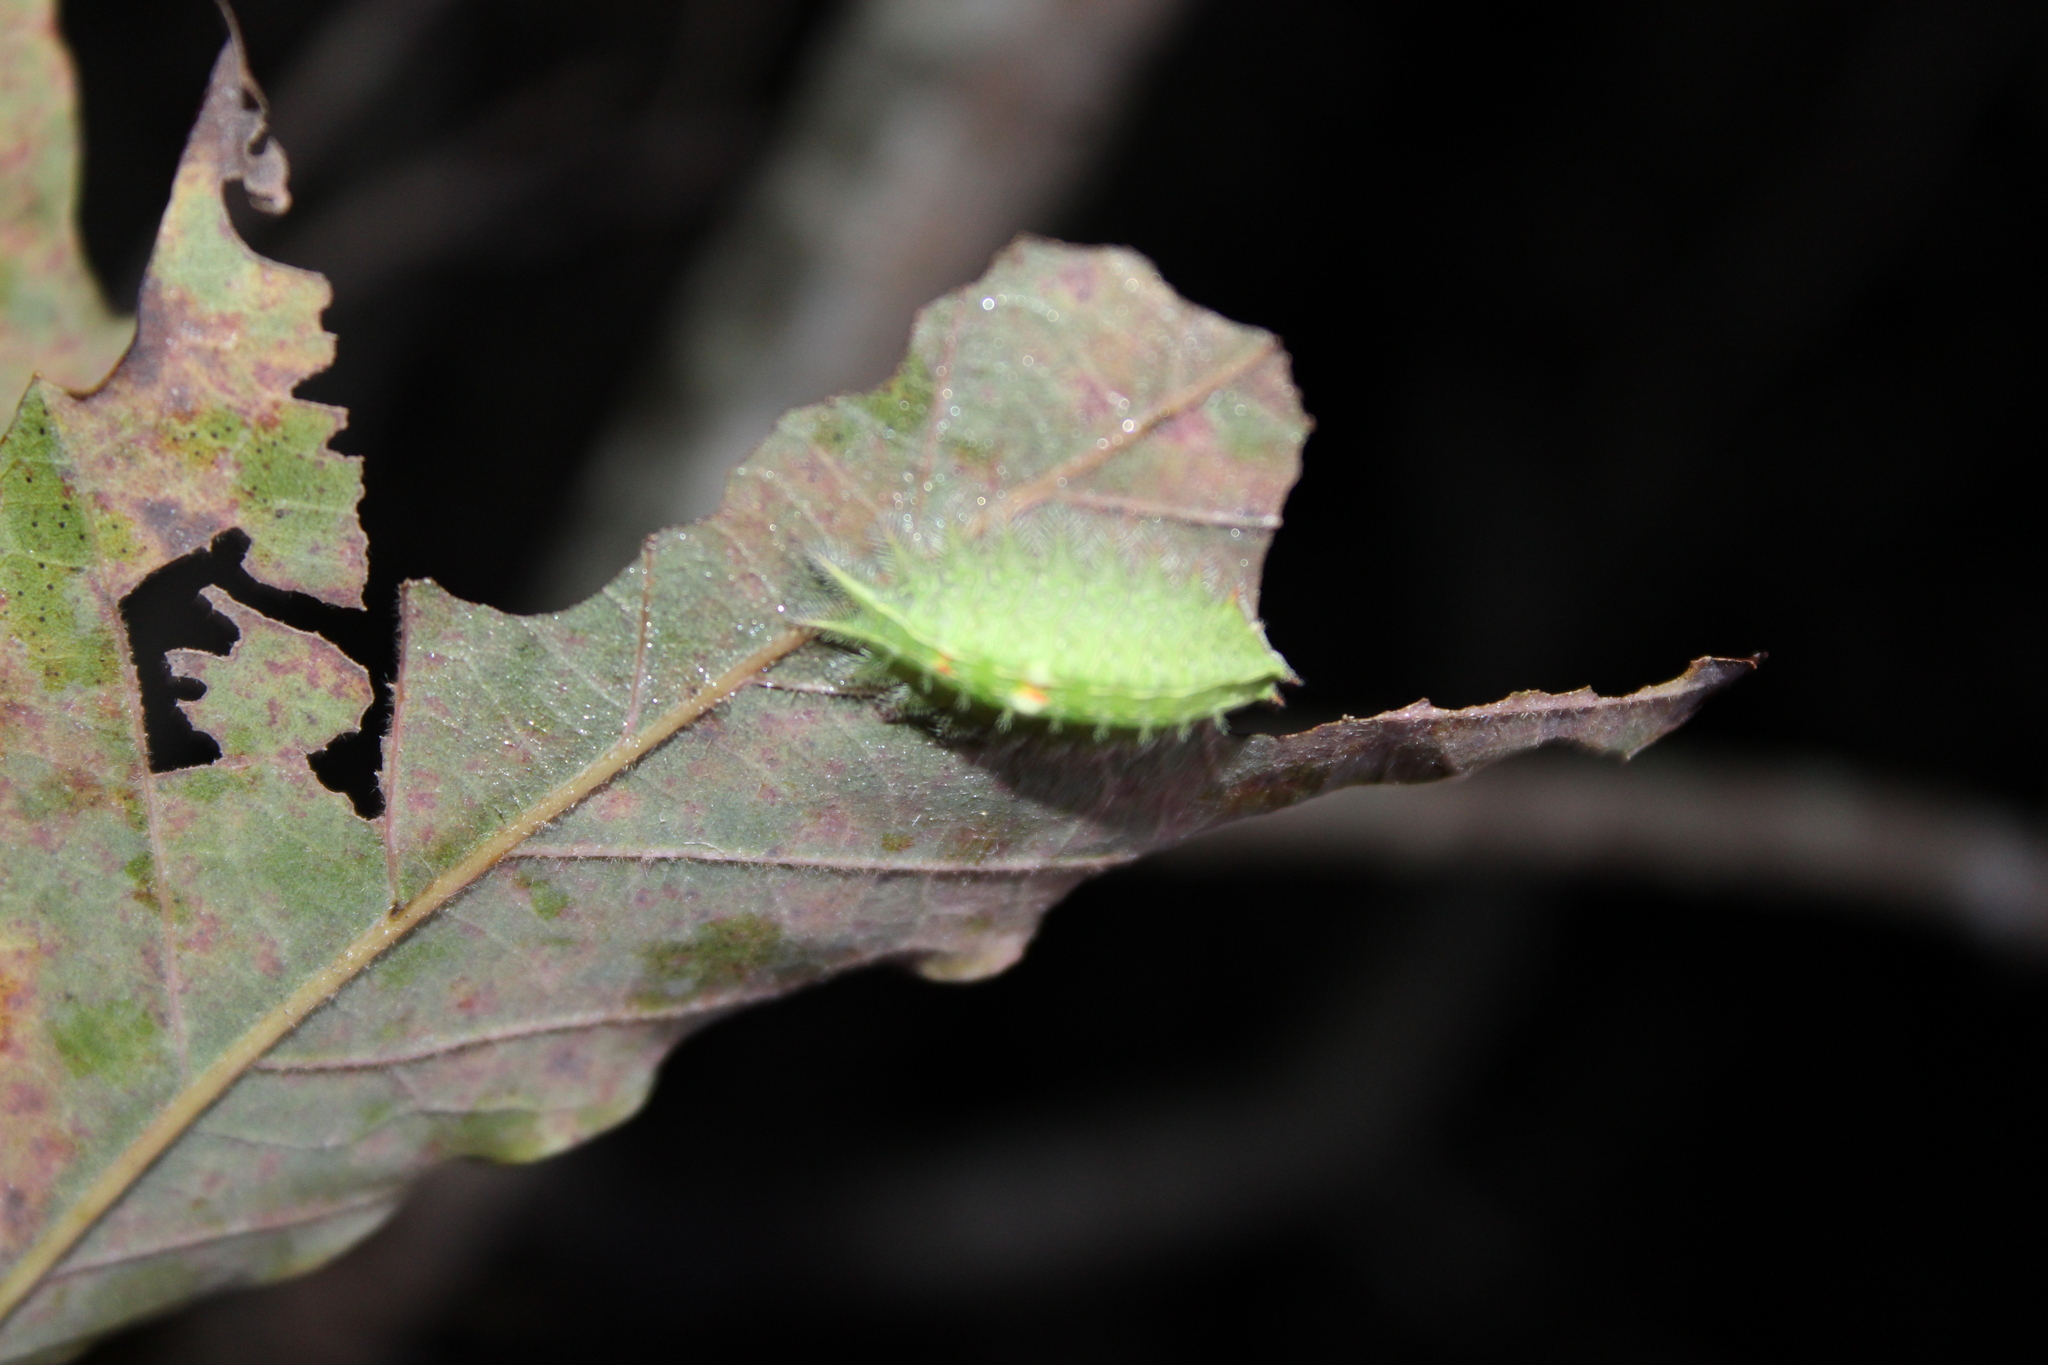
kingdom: Animalia
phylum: Arthropoda
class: Insecta
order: Lepidoptera
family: Limacodidae
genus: Isa
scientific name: Isa textula
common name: Crowned slug moth
